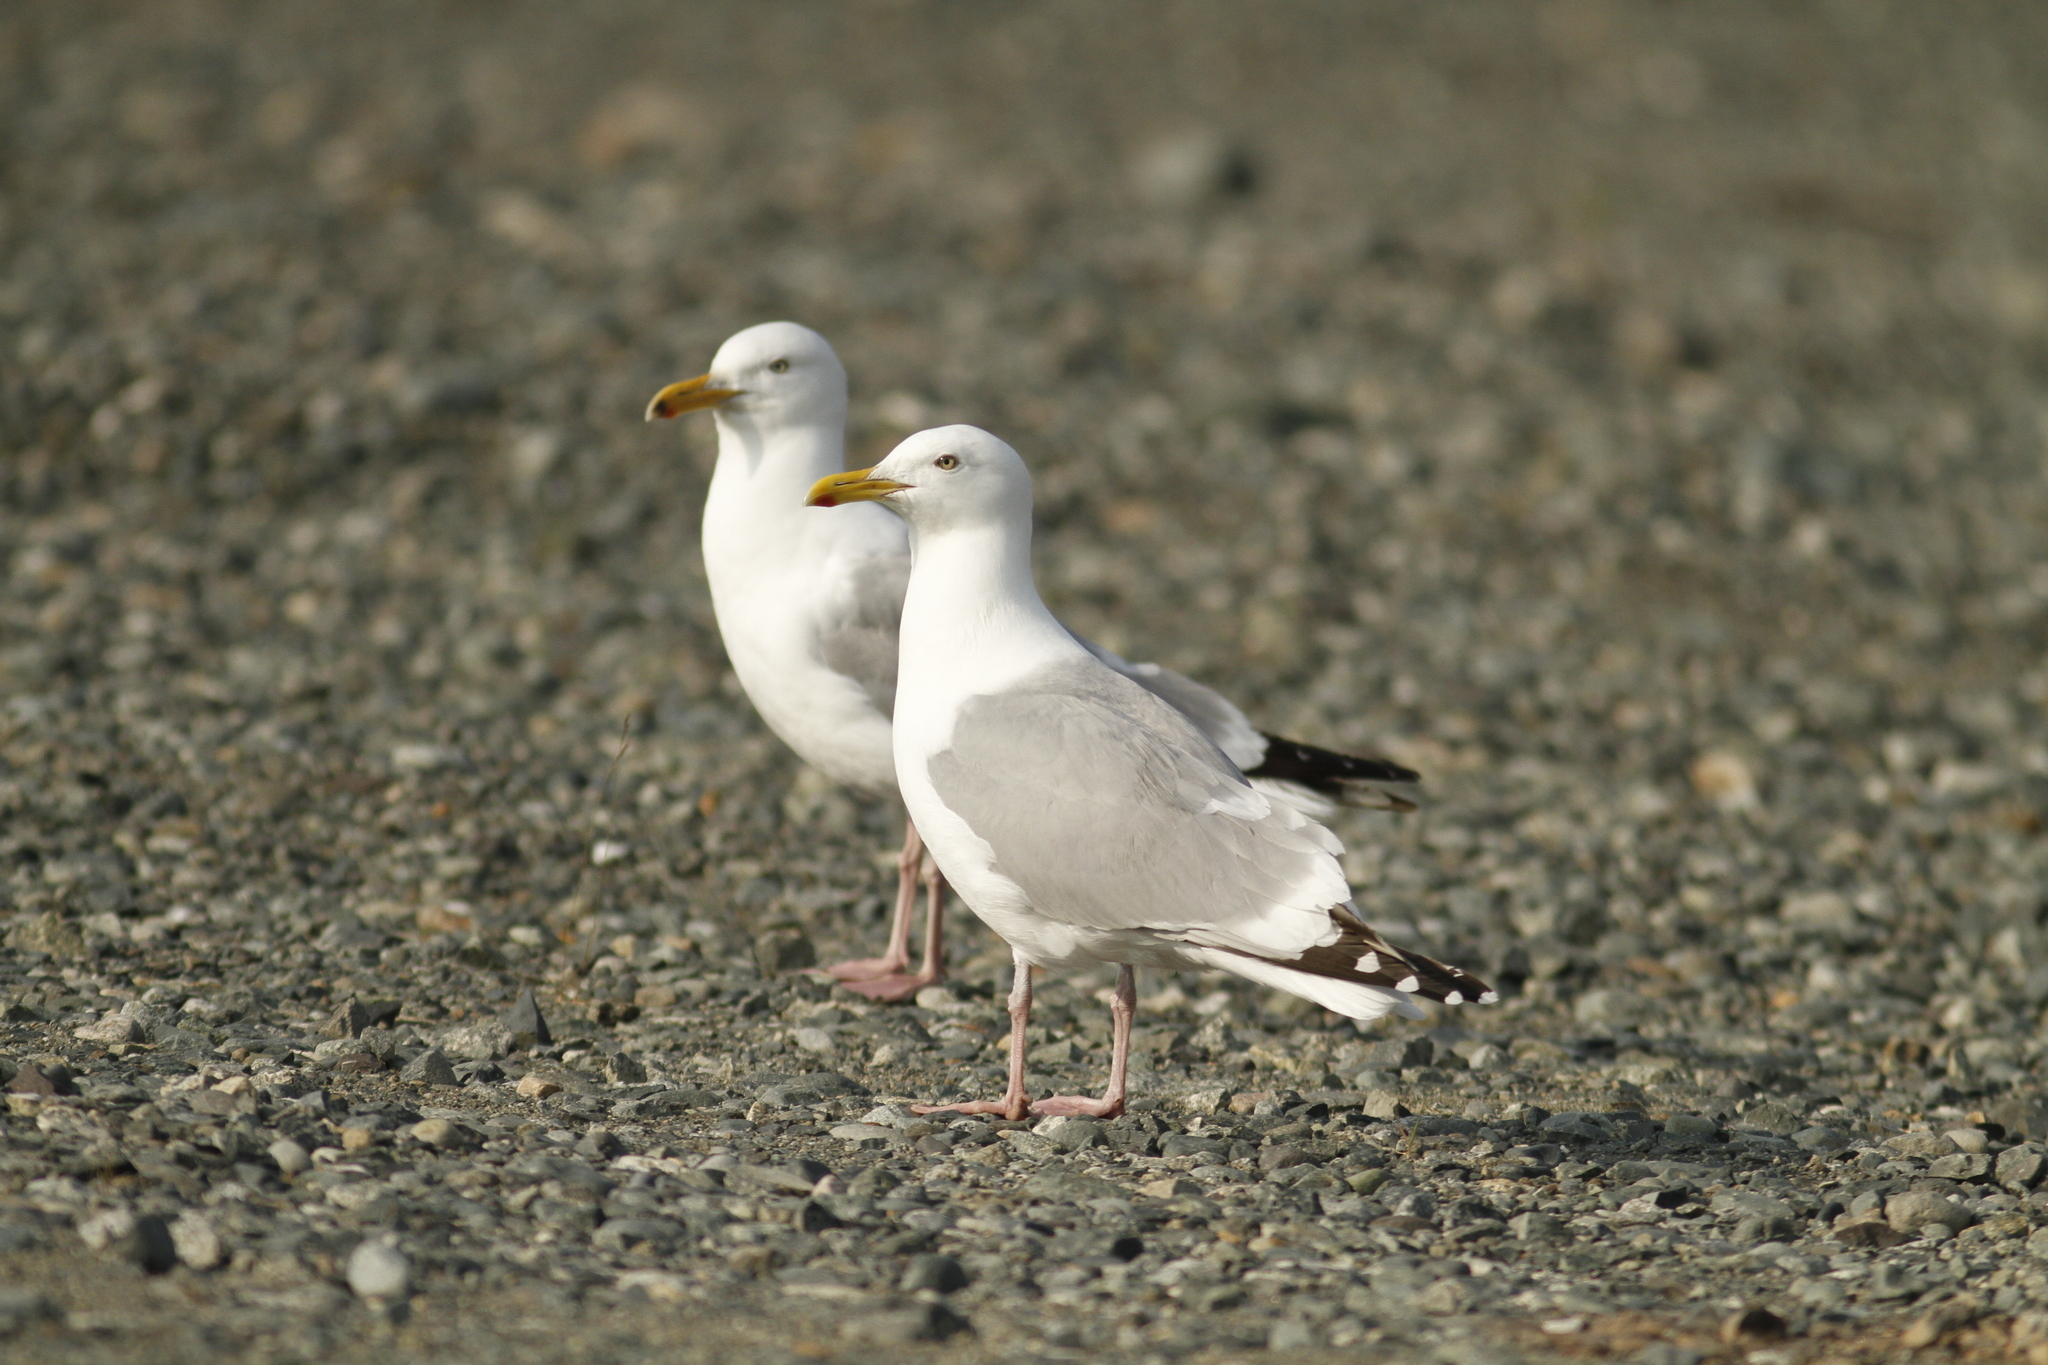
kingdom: Animalia
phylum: Chordata
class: Aves
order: Charadriiformes
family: Laridae
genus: Larus
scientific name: Larus smithsonianus
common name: American herring gull
